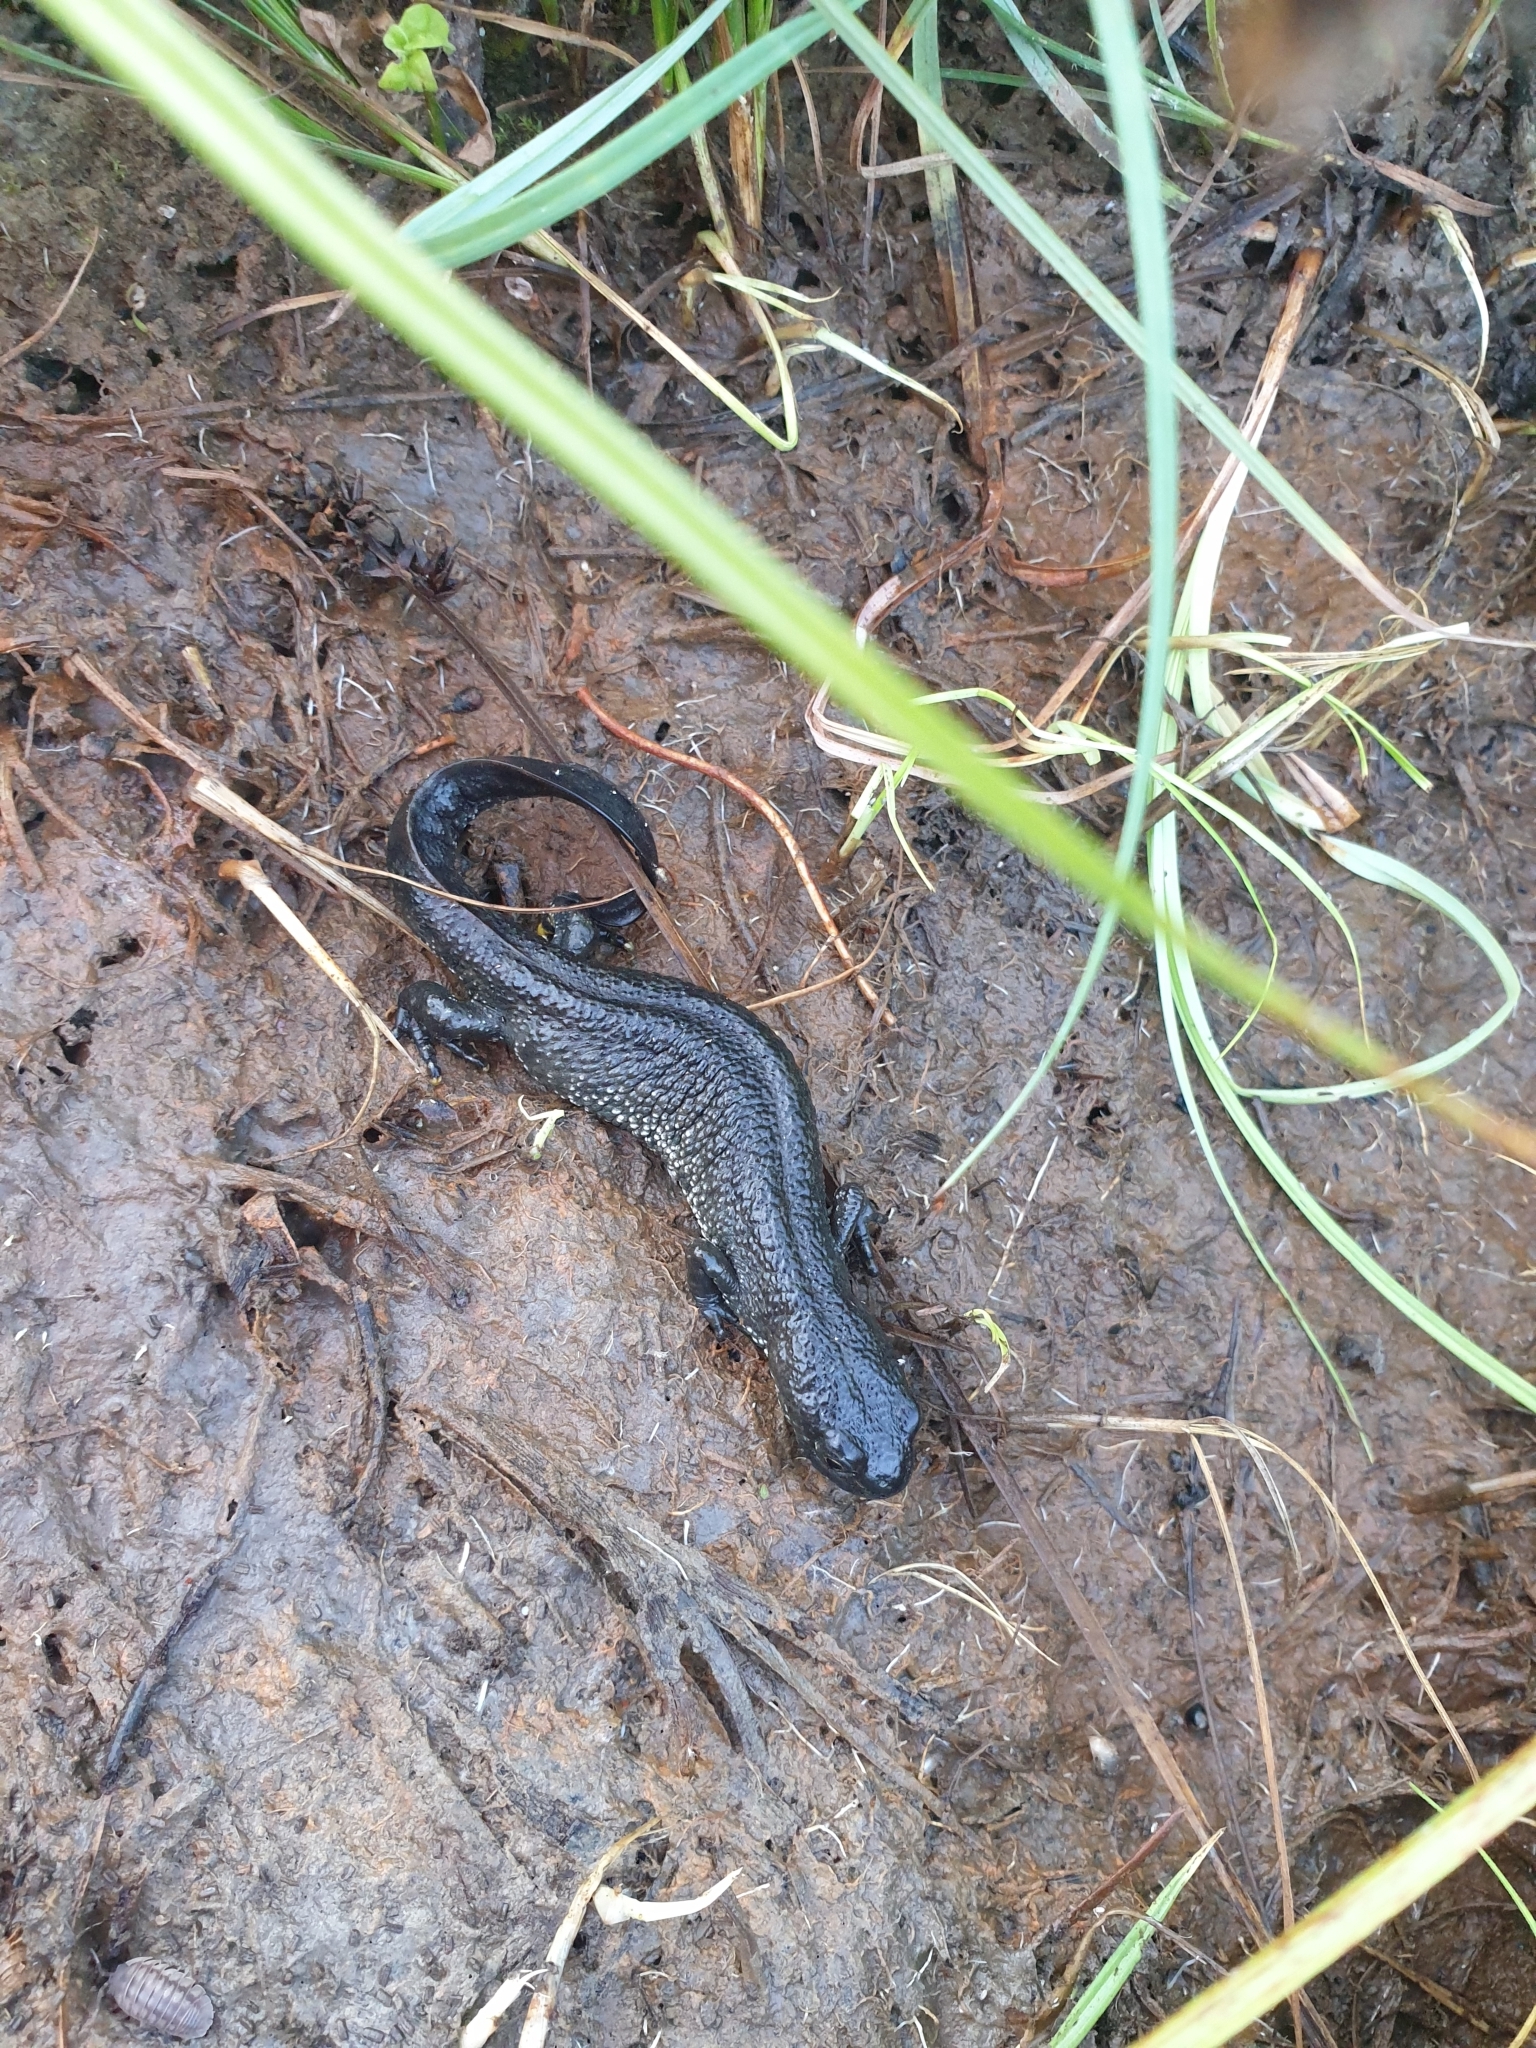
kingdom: Animalia
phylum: Chordata
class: Amphibia
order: Caudata
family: Salamandridae
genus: Triturus
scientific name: Triturus cristatus
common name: Crested newt
